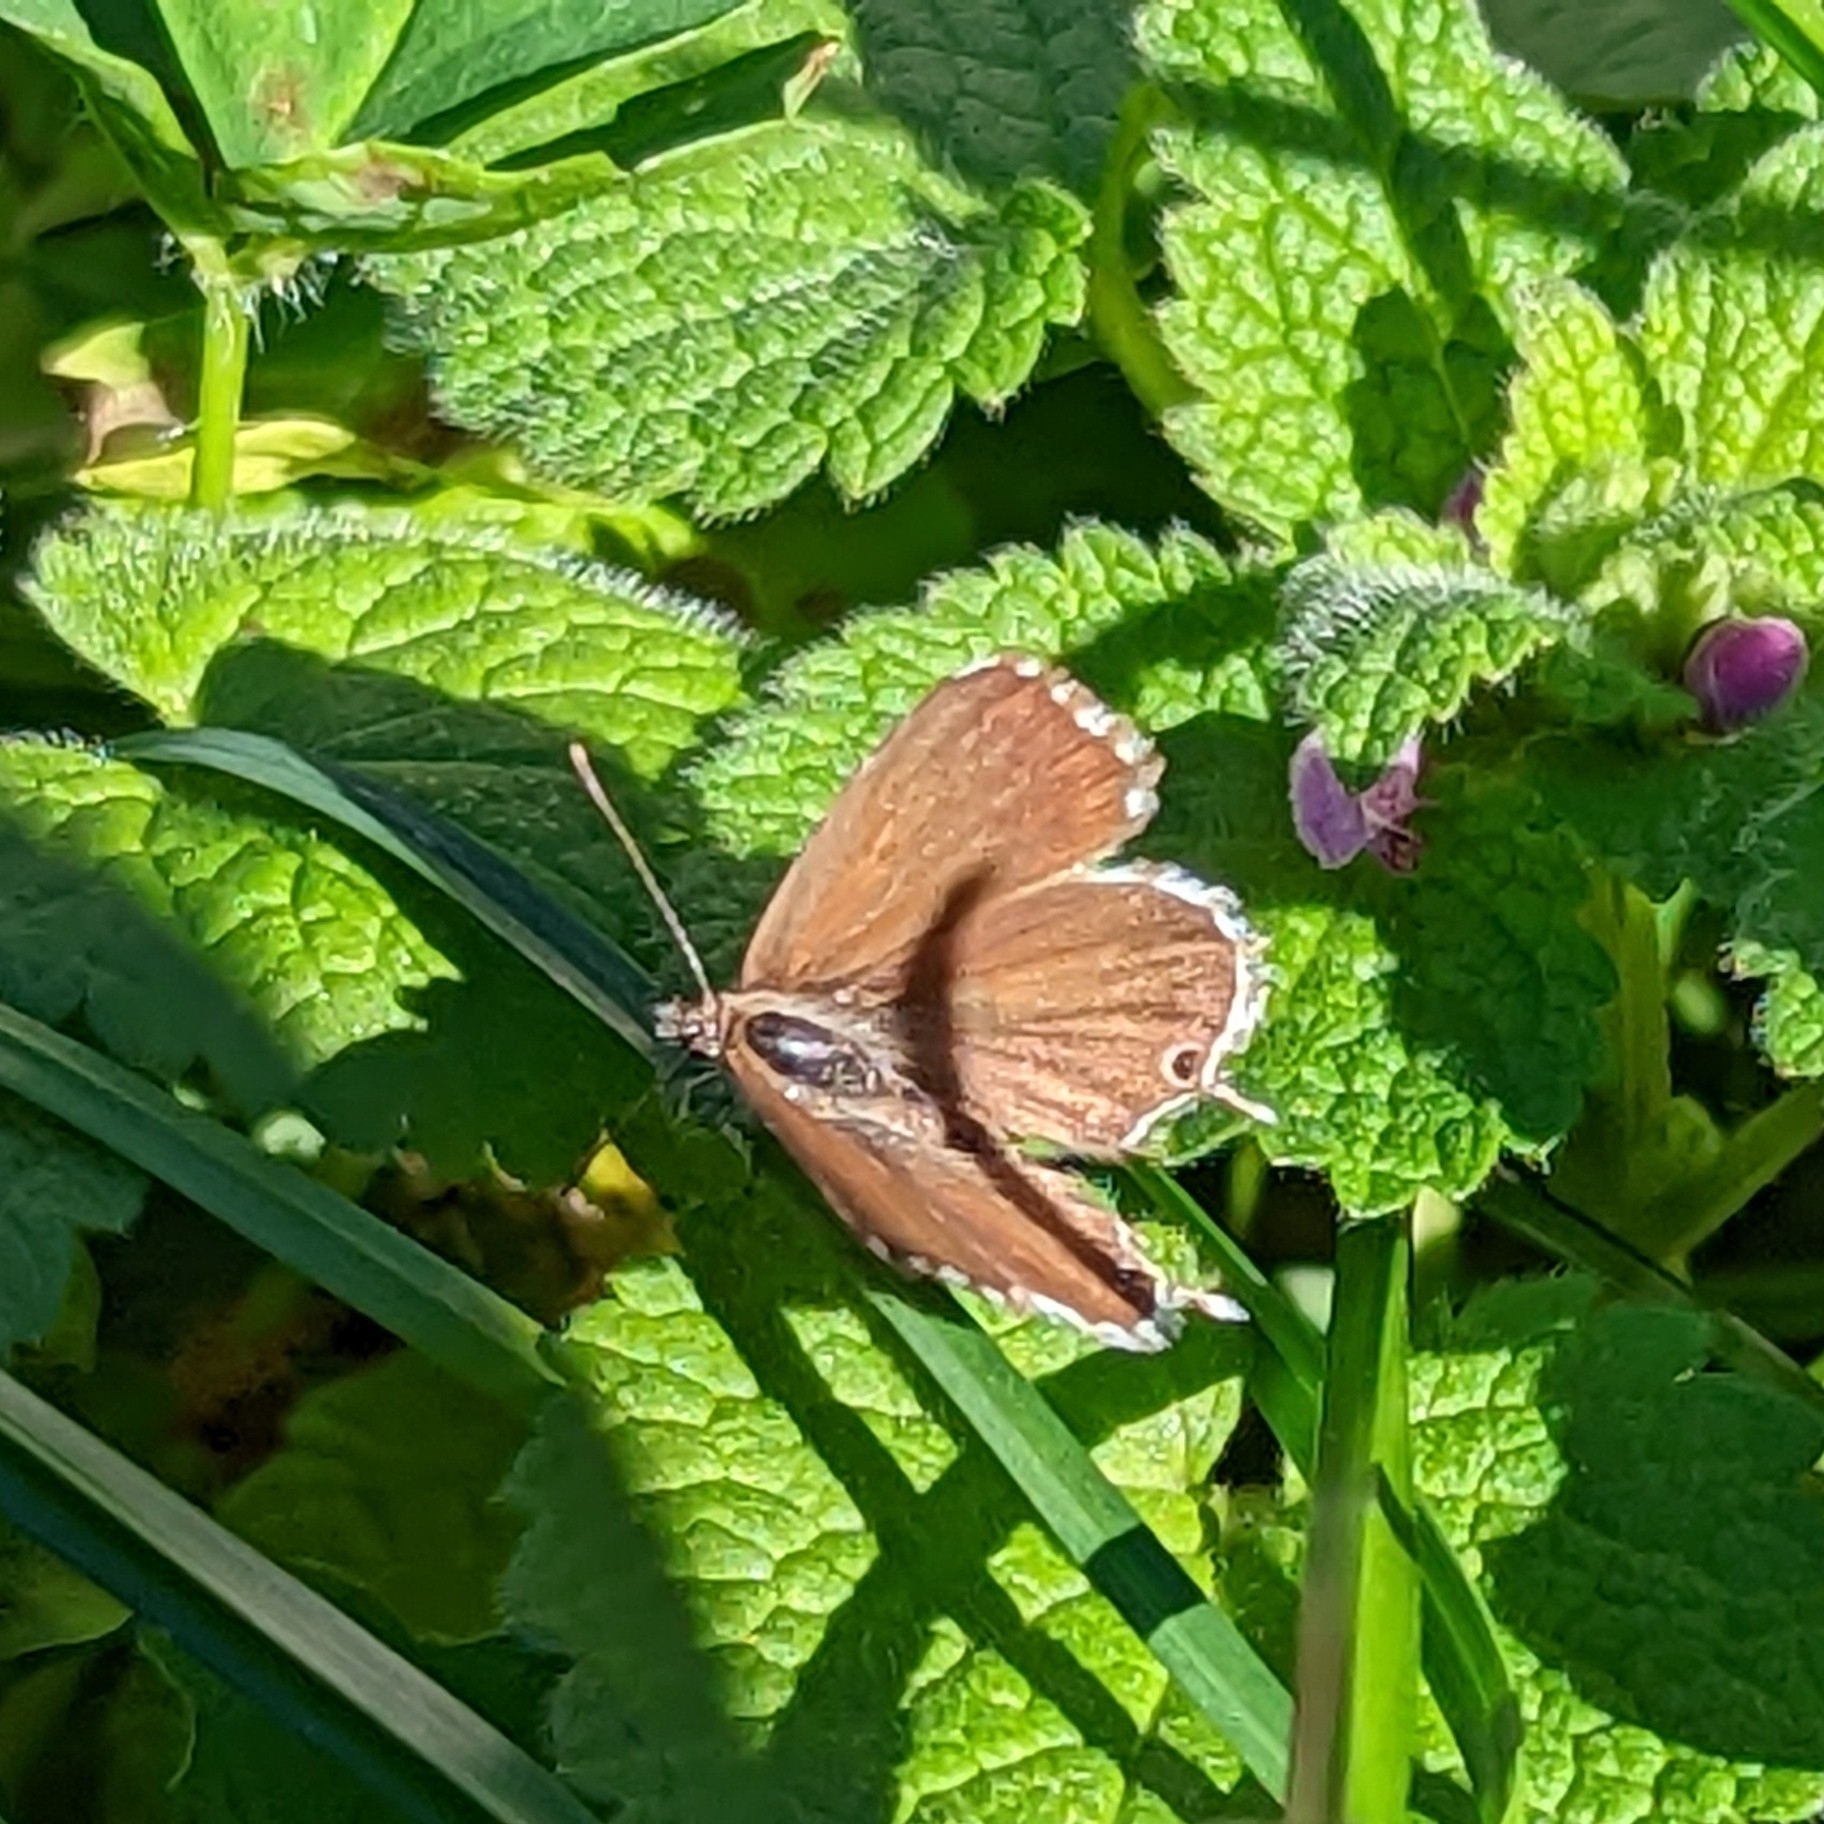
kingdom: Animalia
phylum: Arthropoda
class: Insecta
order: Lepidoptera
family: Lycaenidae
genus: Cacyreus
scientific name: Cacyreus marshalli
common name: Geranium bronze
